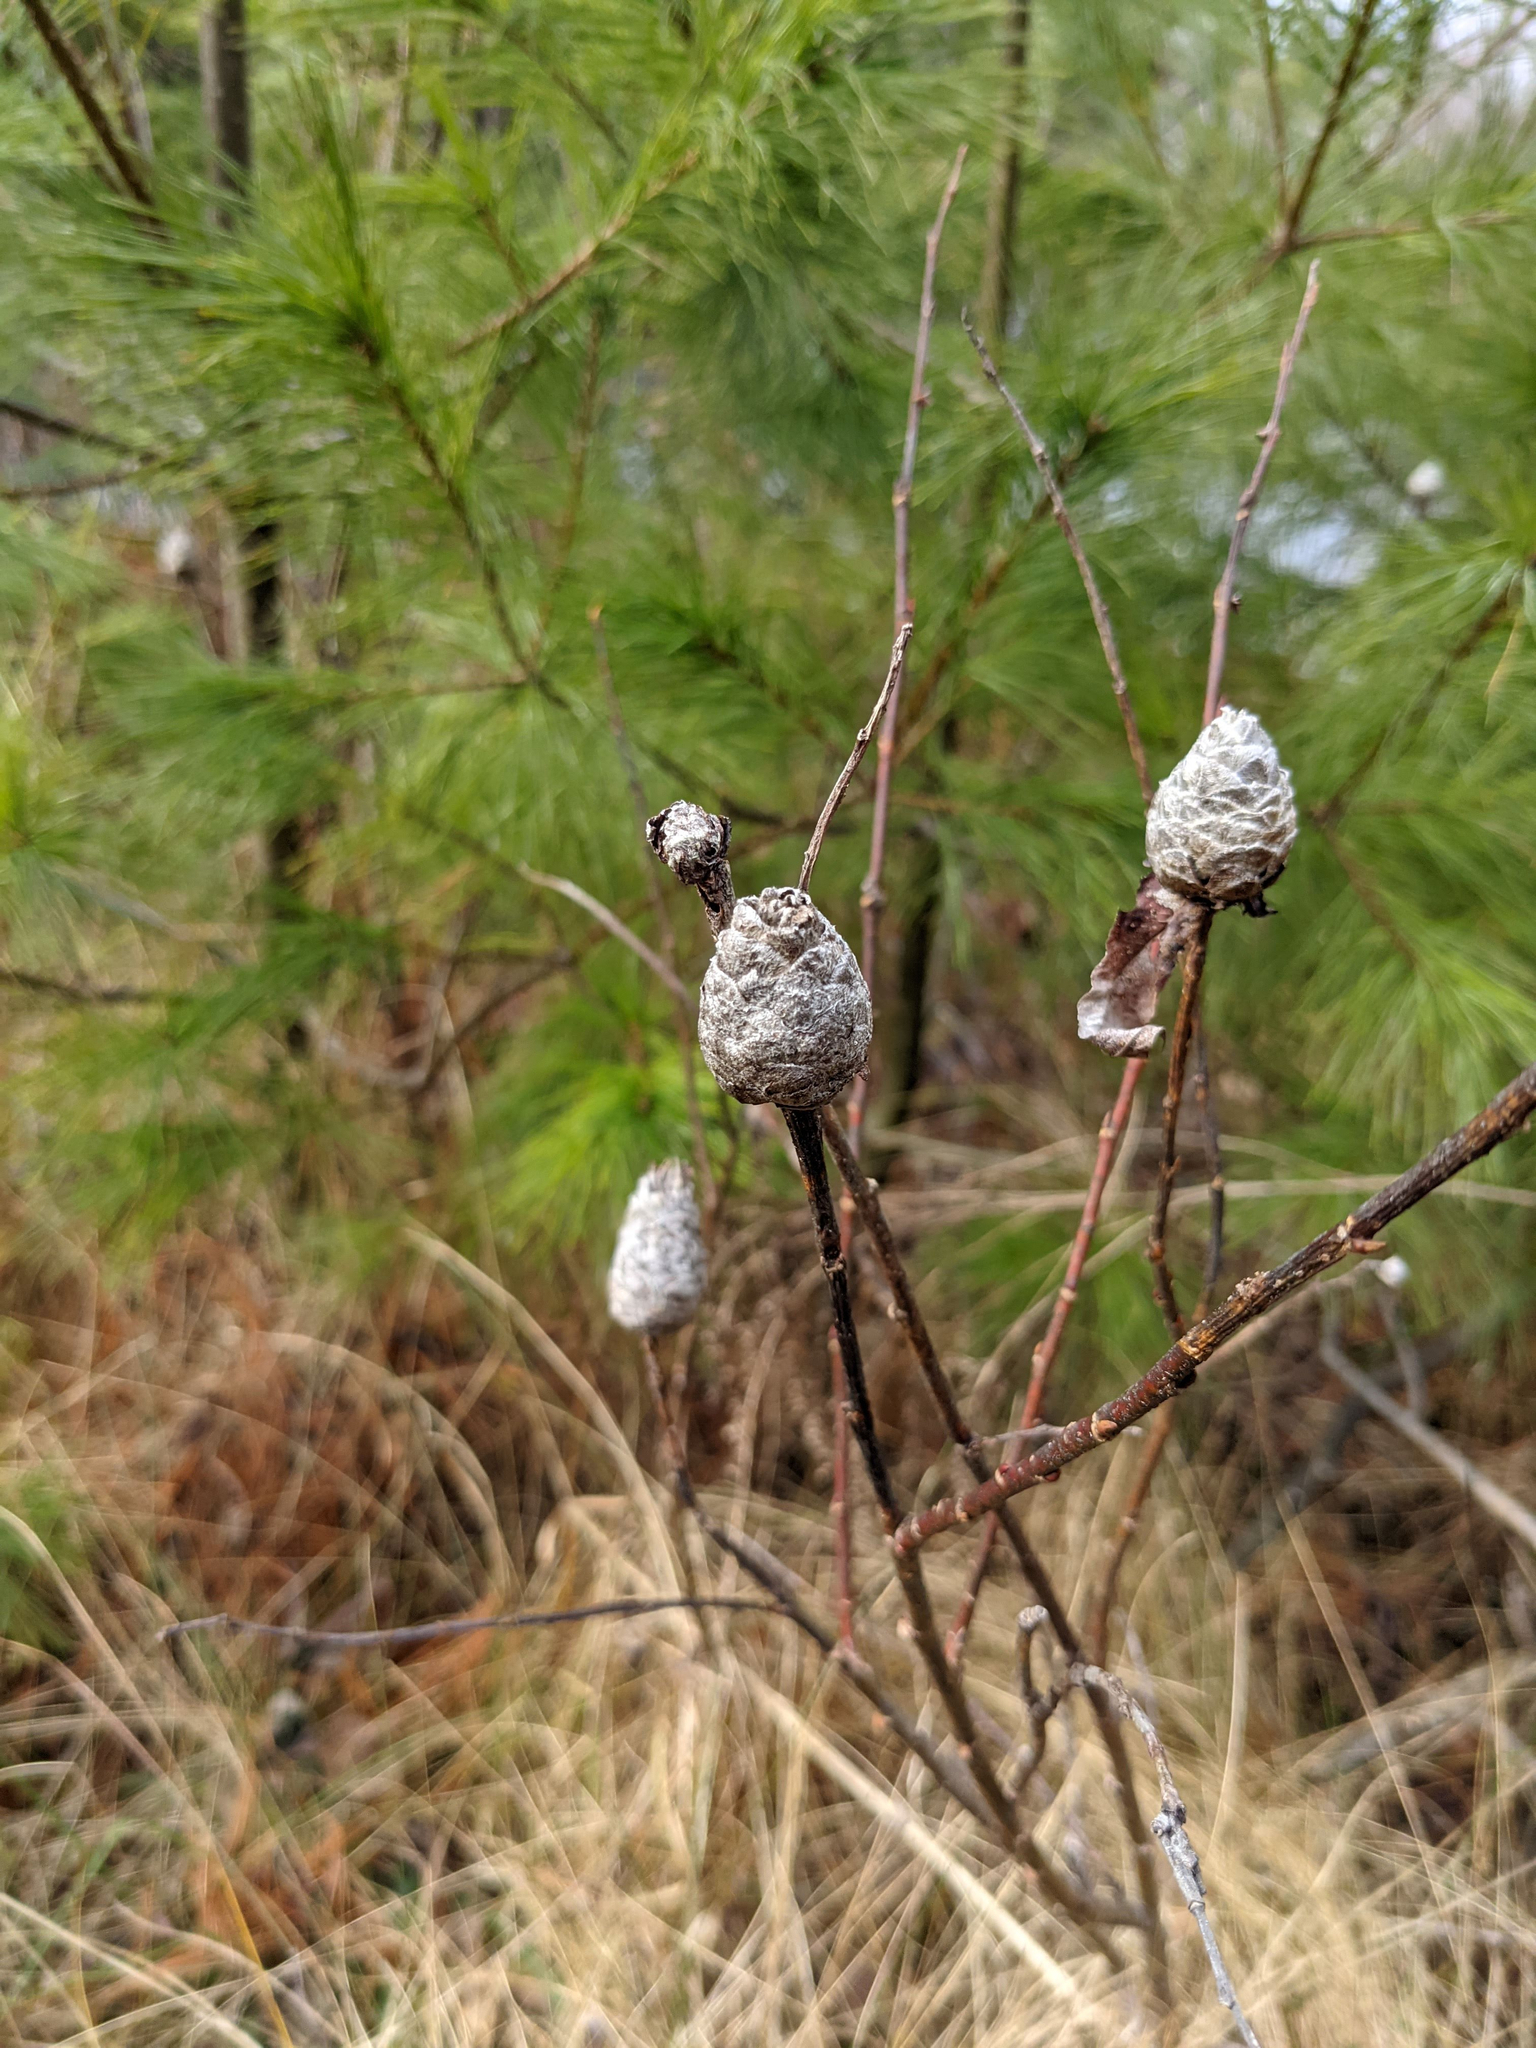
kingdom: Animalia
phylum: Arthropoda
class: Insecta
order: Diptera
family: Cecidomyiidae
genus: Rabdophaga
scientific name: Rabdophaga strobiloides
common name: Willow pinecone gall midge
